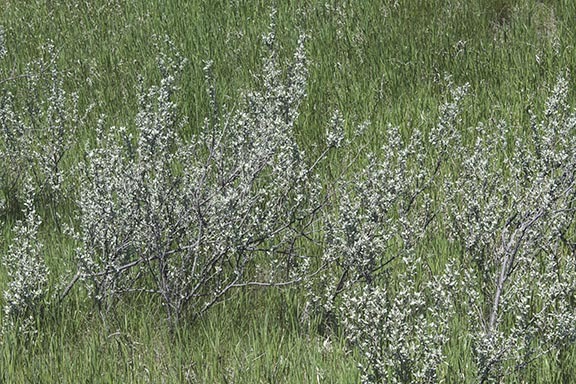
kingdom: Plantae
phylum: Tracheophyta
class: Magnoliopsida
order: Rosales
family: Elaeagnaceae
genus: Elaeagnus
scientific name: Elaeagnus commutata
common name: Silverberry
